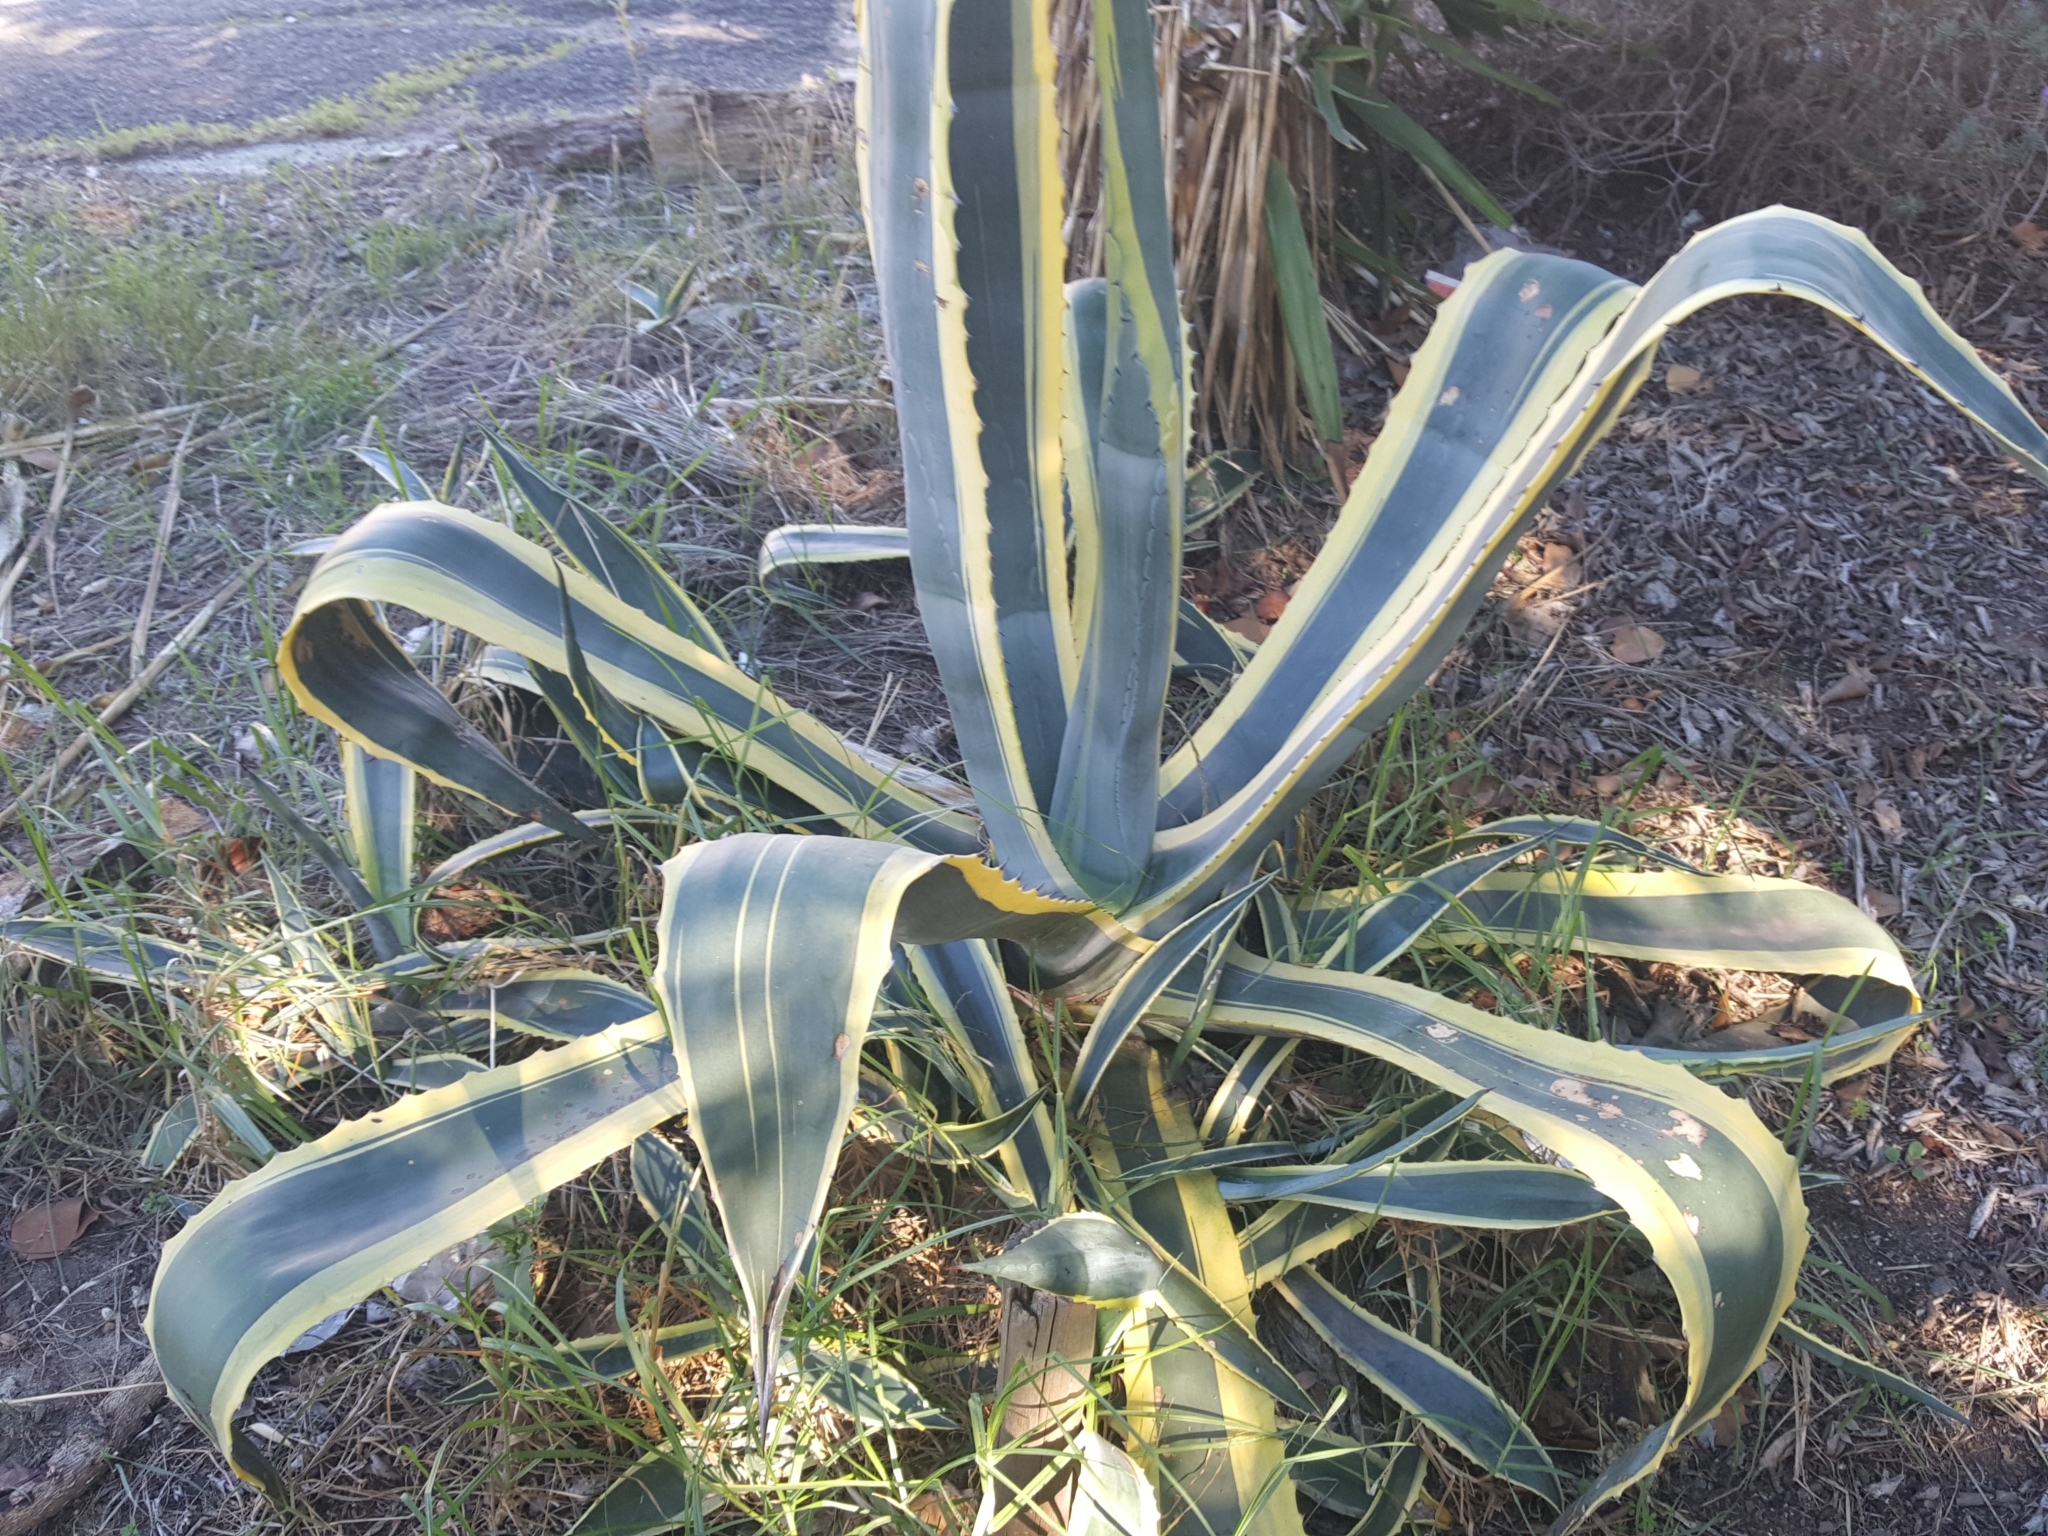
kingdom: Plantae
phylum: Tracheophyta
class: Liliopsida
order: Asparagales
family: Asparagaceae
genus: Agave
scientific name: Agave americana
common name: Centuryplant
